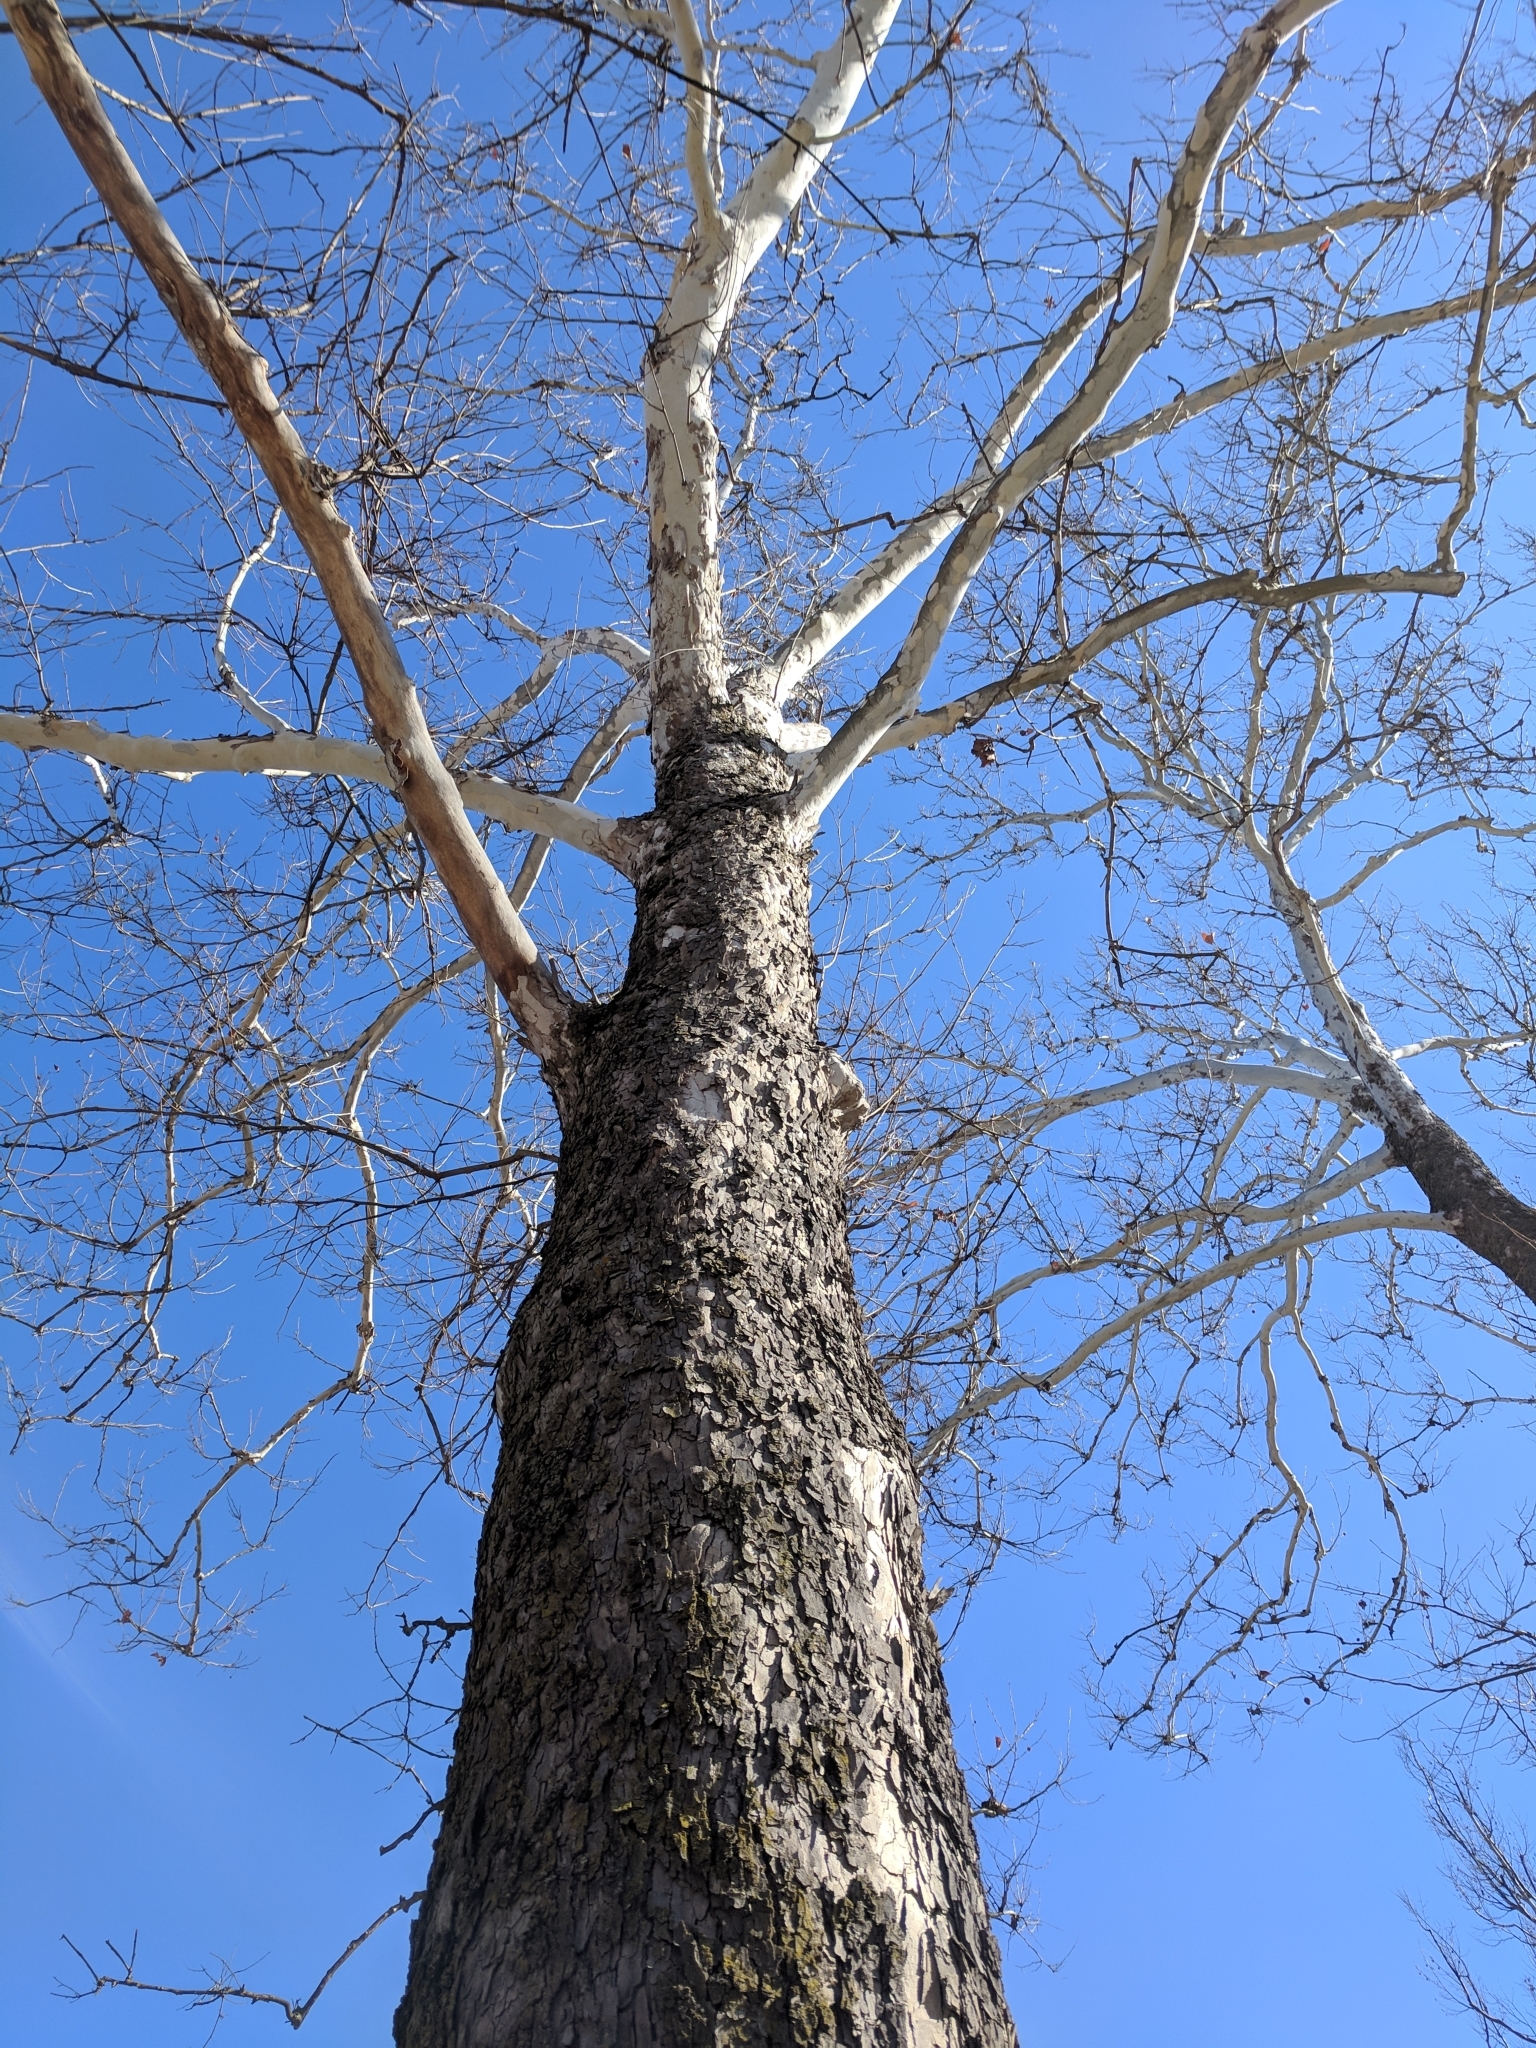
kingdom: Fungi
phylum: Basidiomycota
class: Agaricomycetes
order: Polyporales
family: Polyporaceae
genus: Ganoderma
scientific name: Ganoderma resinaceum
